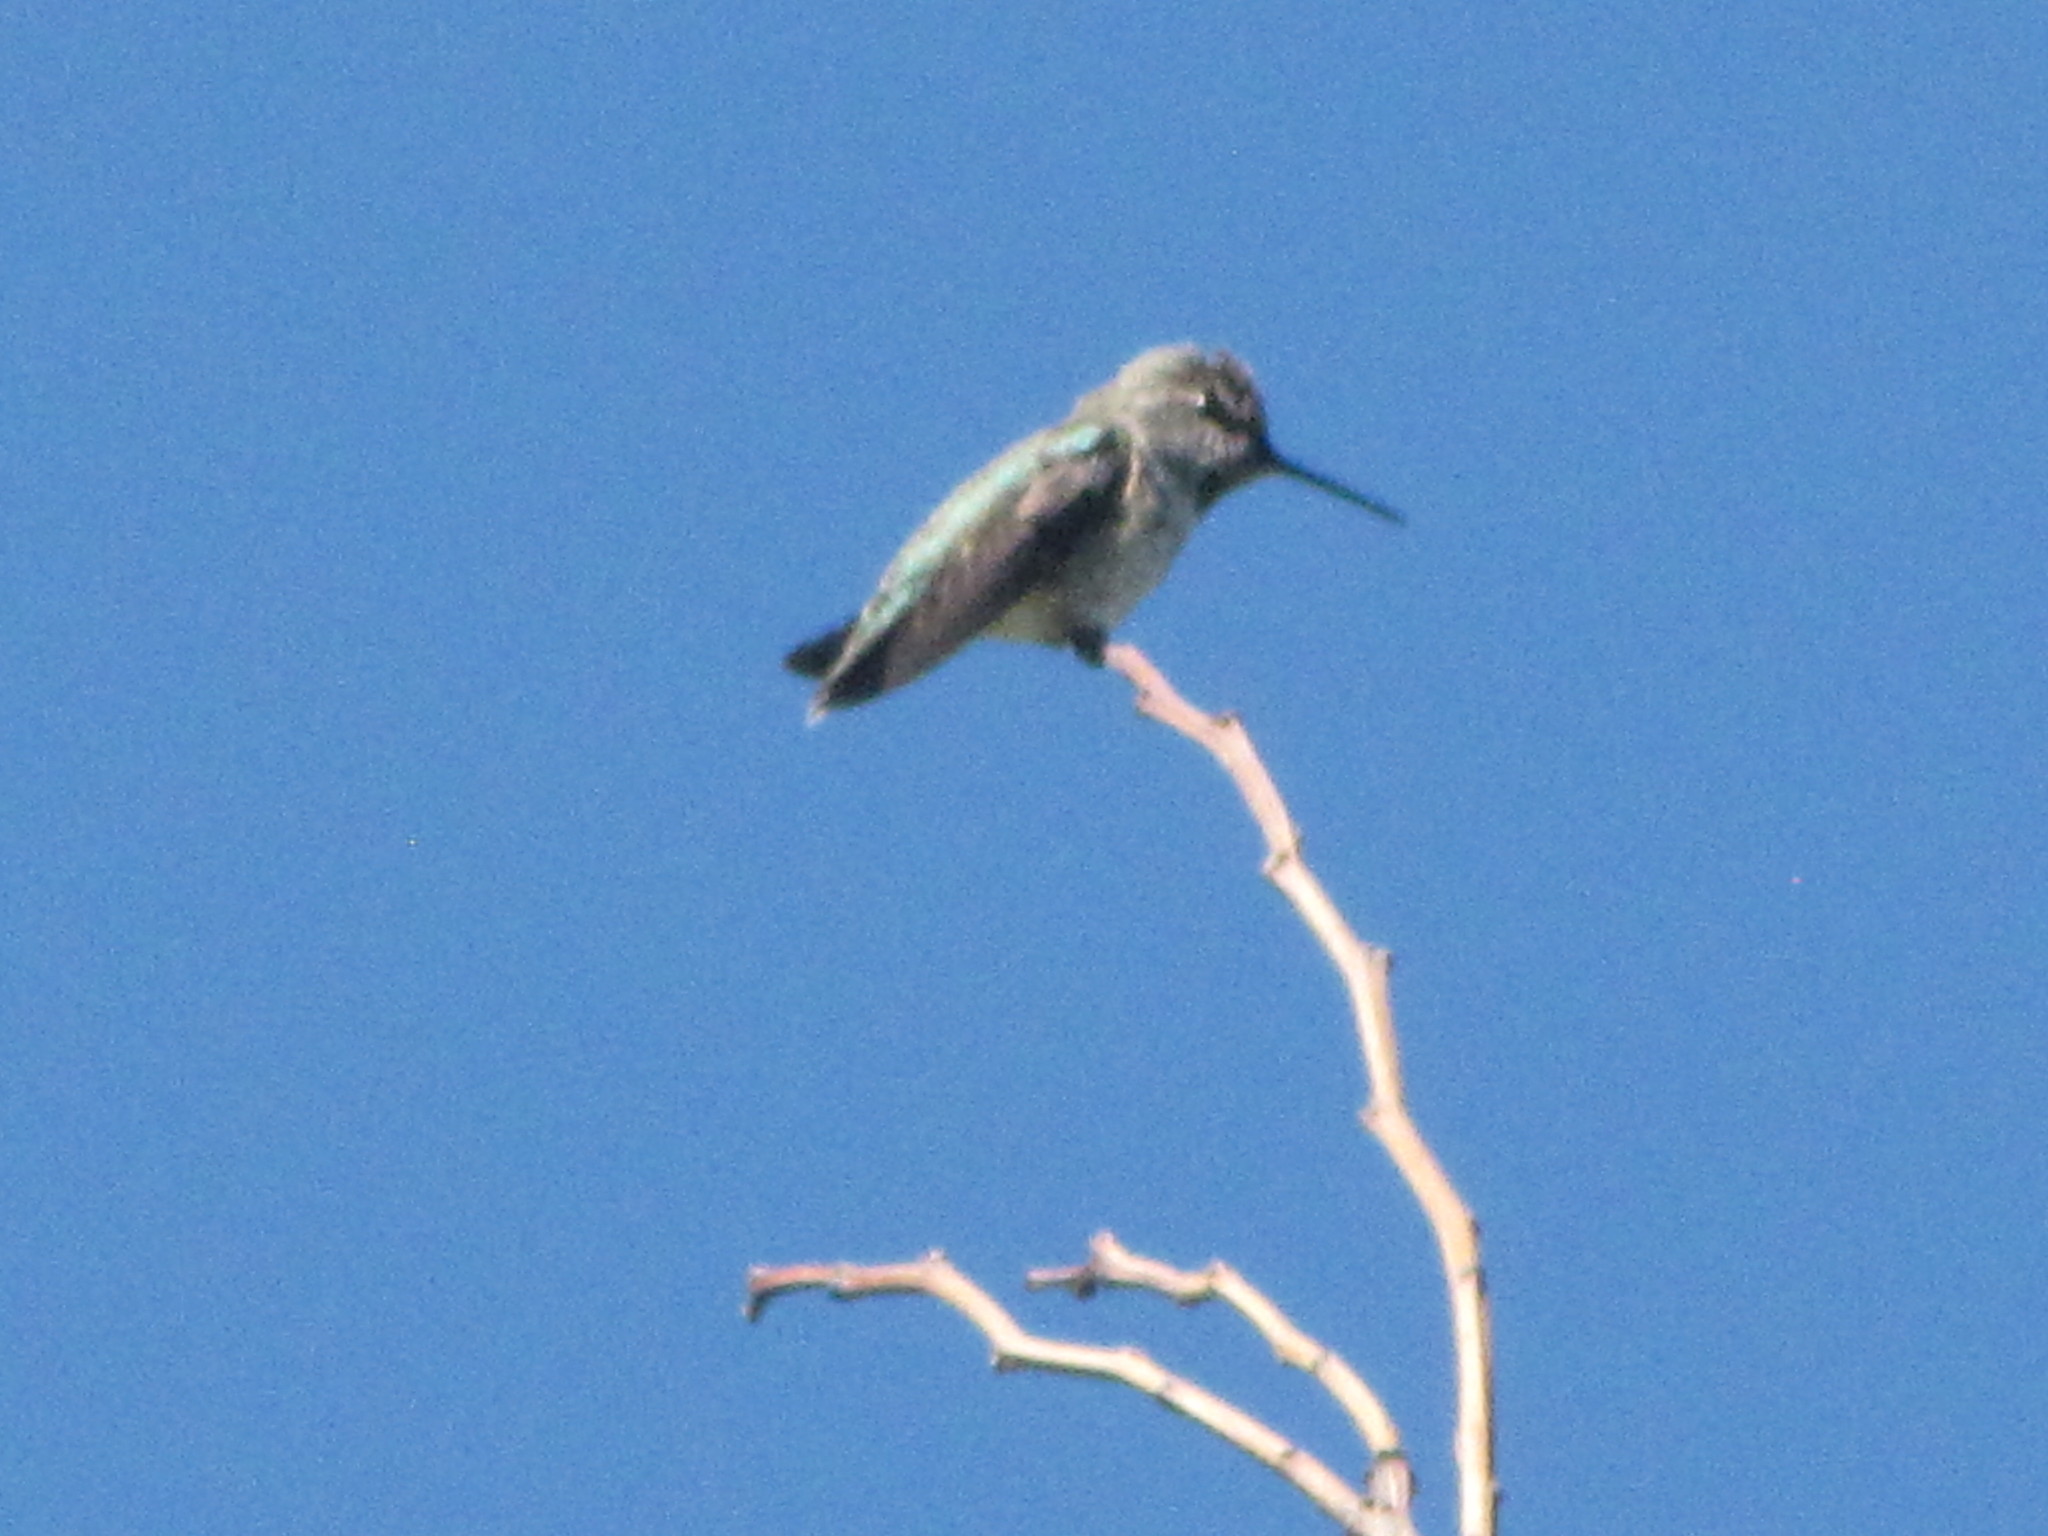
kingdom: Animalia
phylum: Chordata
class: Aves
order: Apodiformes
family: Trochilidae
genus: Calypte
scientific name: Calypte anna
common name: Anna's hummingbird
